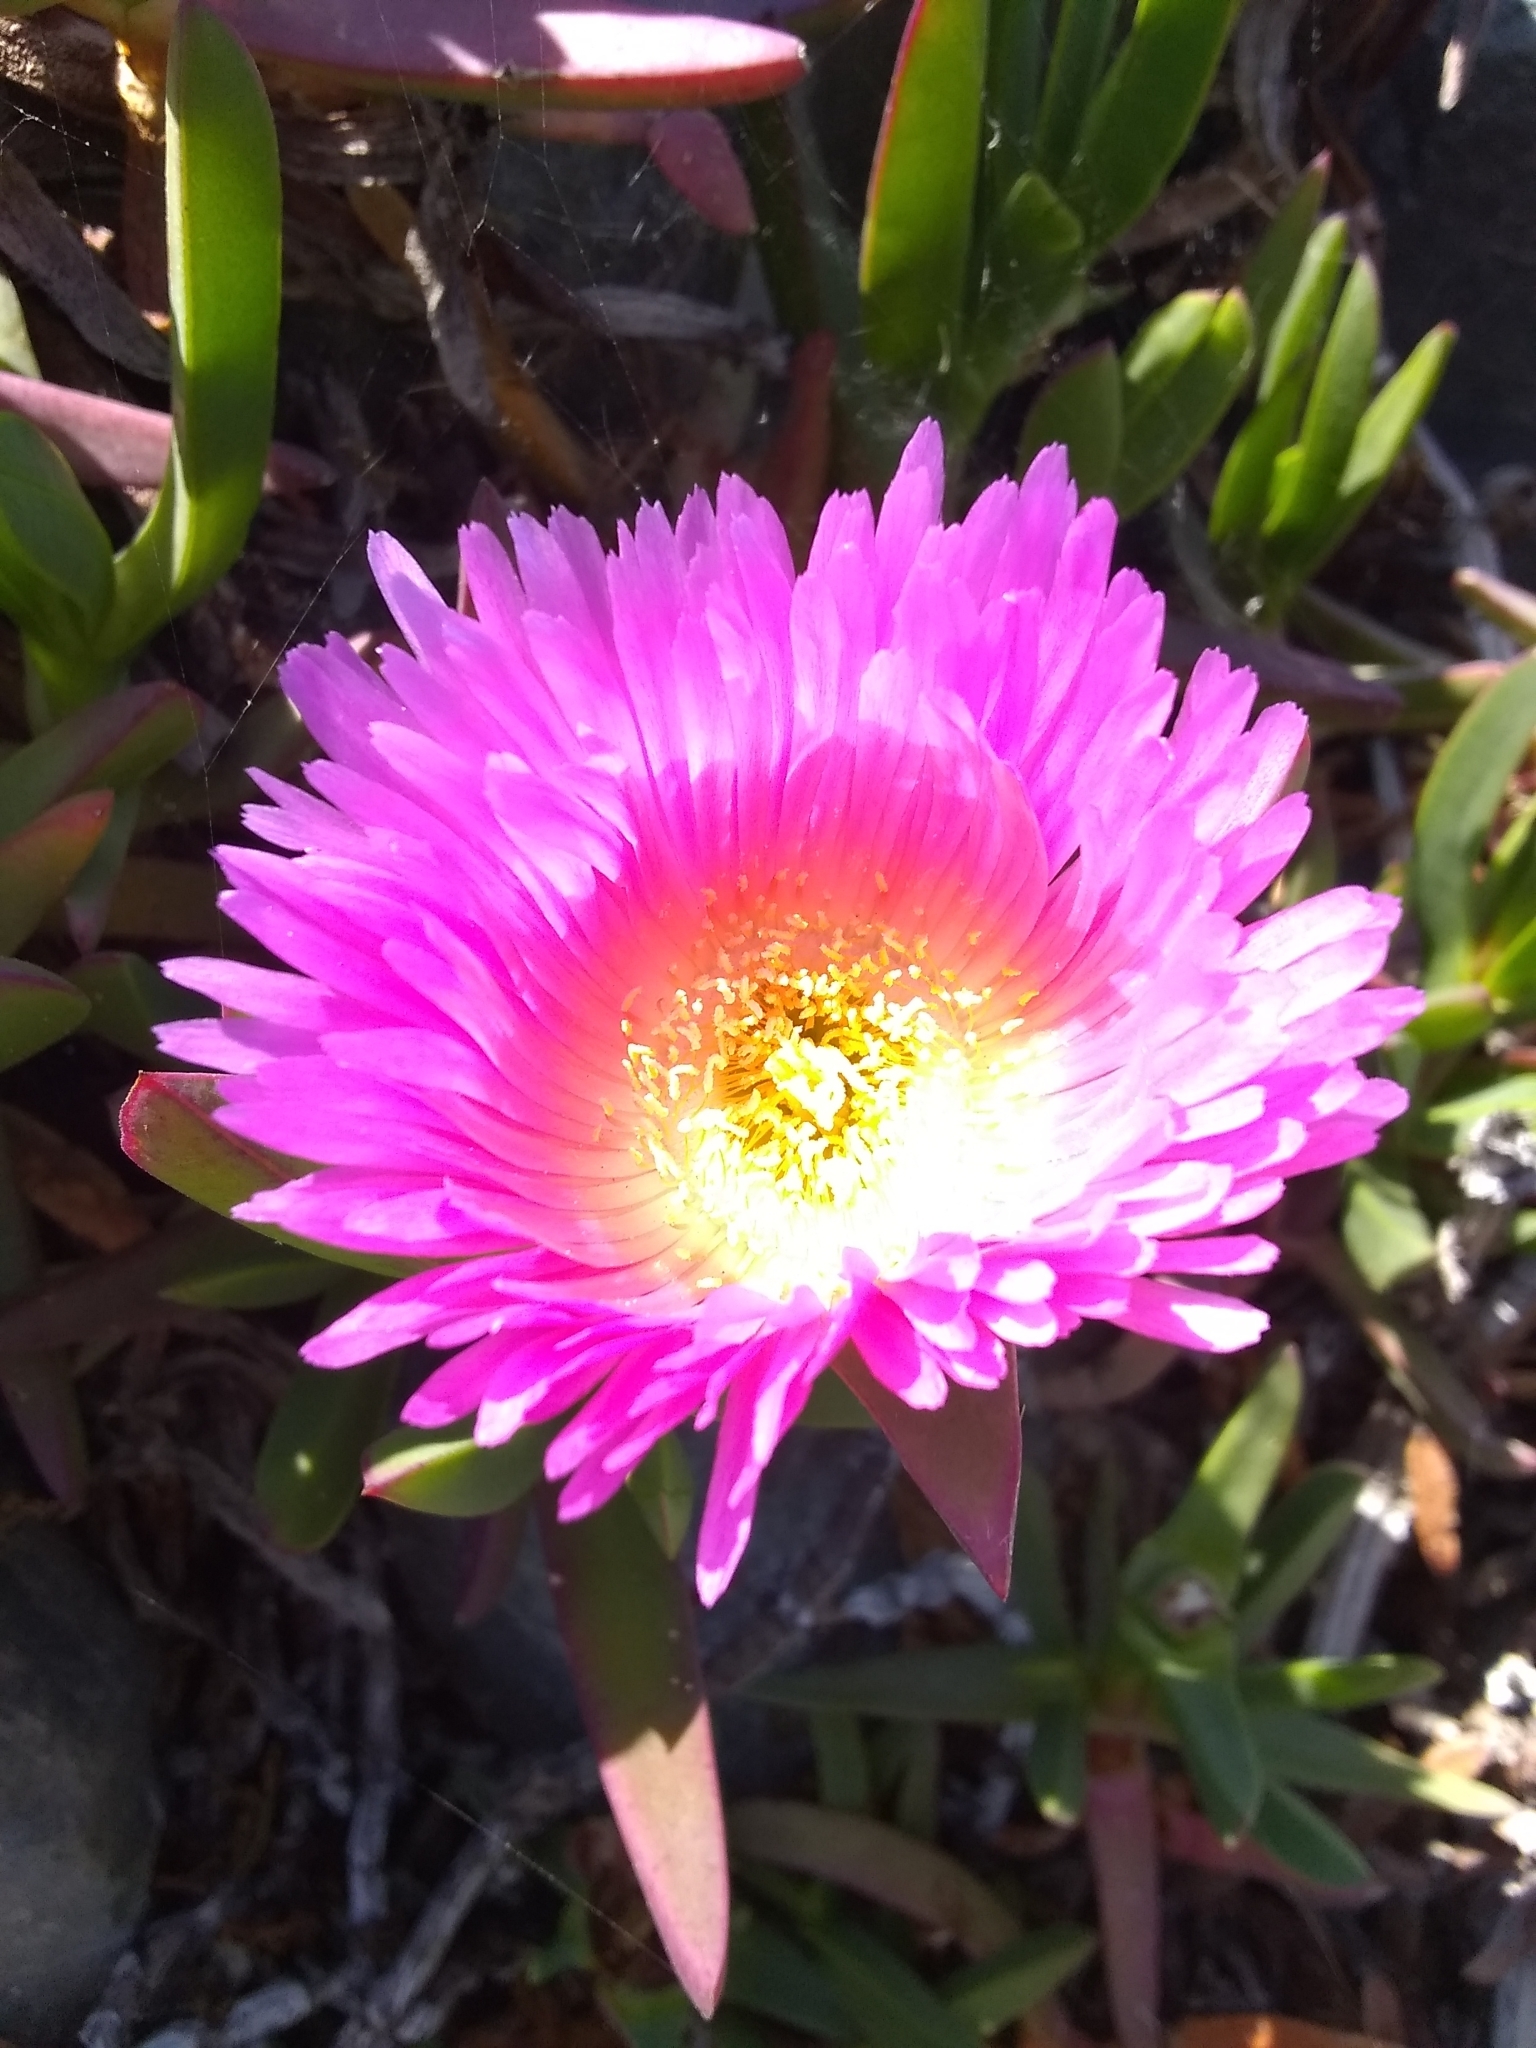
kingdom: Plantae
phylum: Tracheophyta
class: Magnoliopsida
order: Caryophyllales
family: Aizoaceae
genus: Carpobrotus
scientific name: Carpobrotus chilensis
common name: Sea fig
